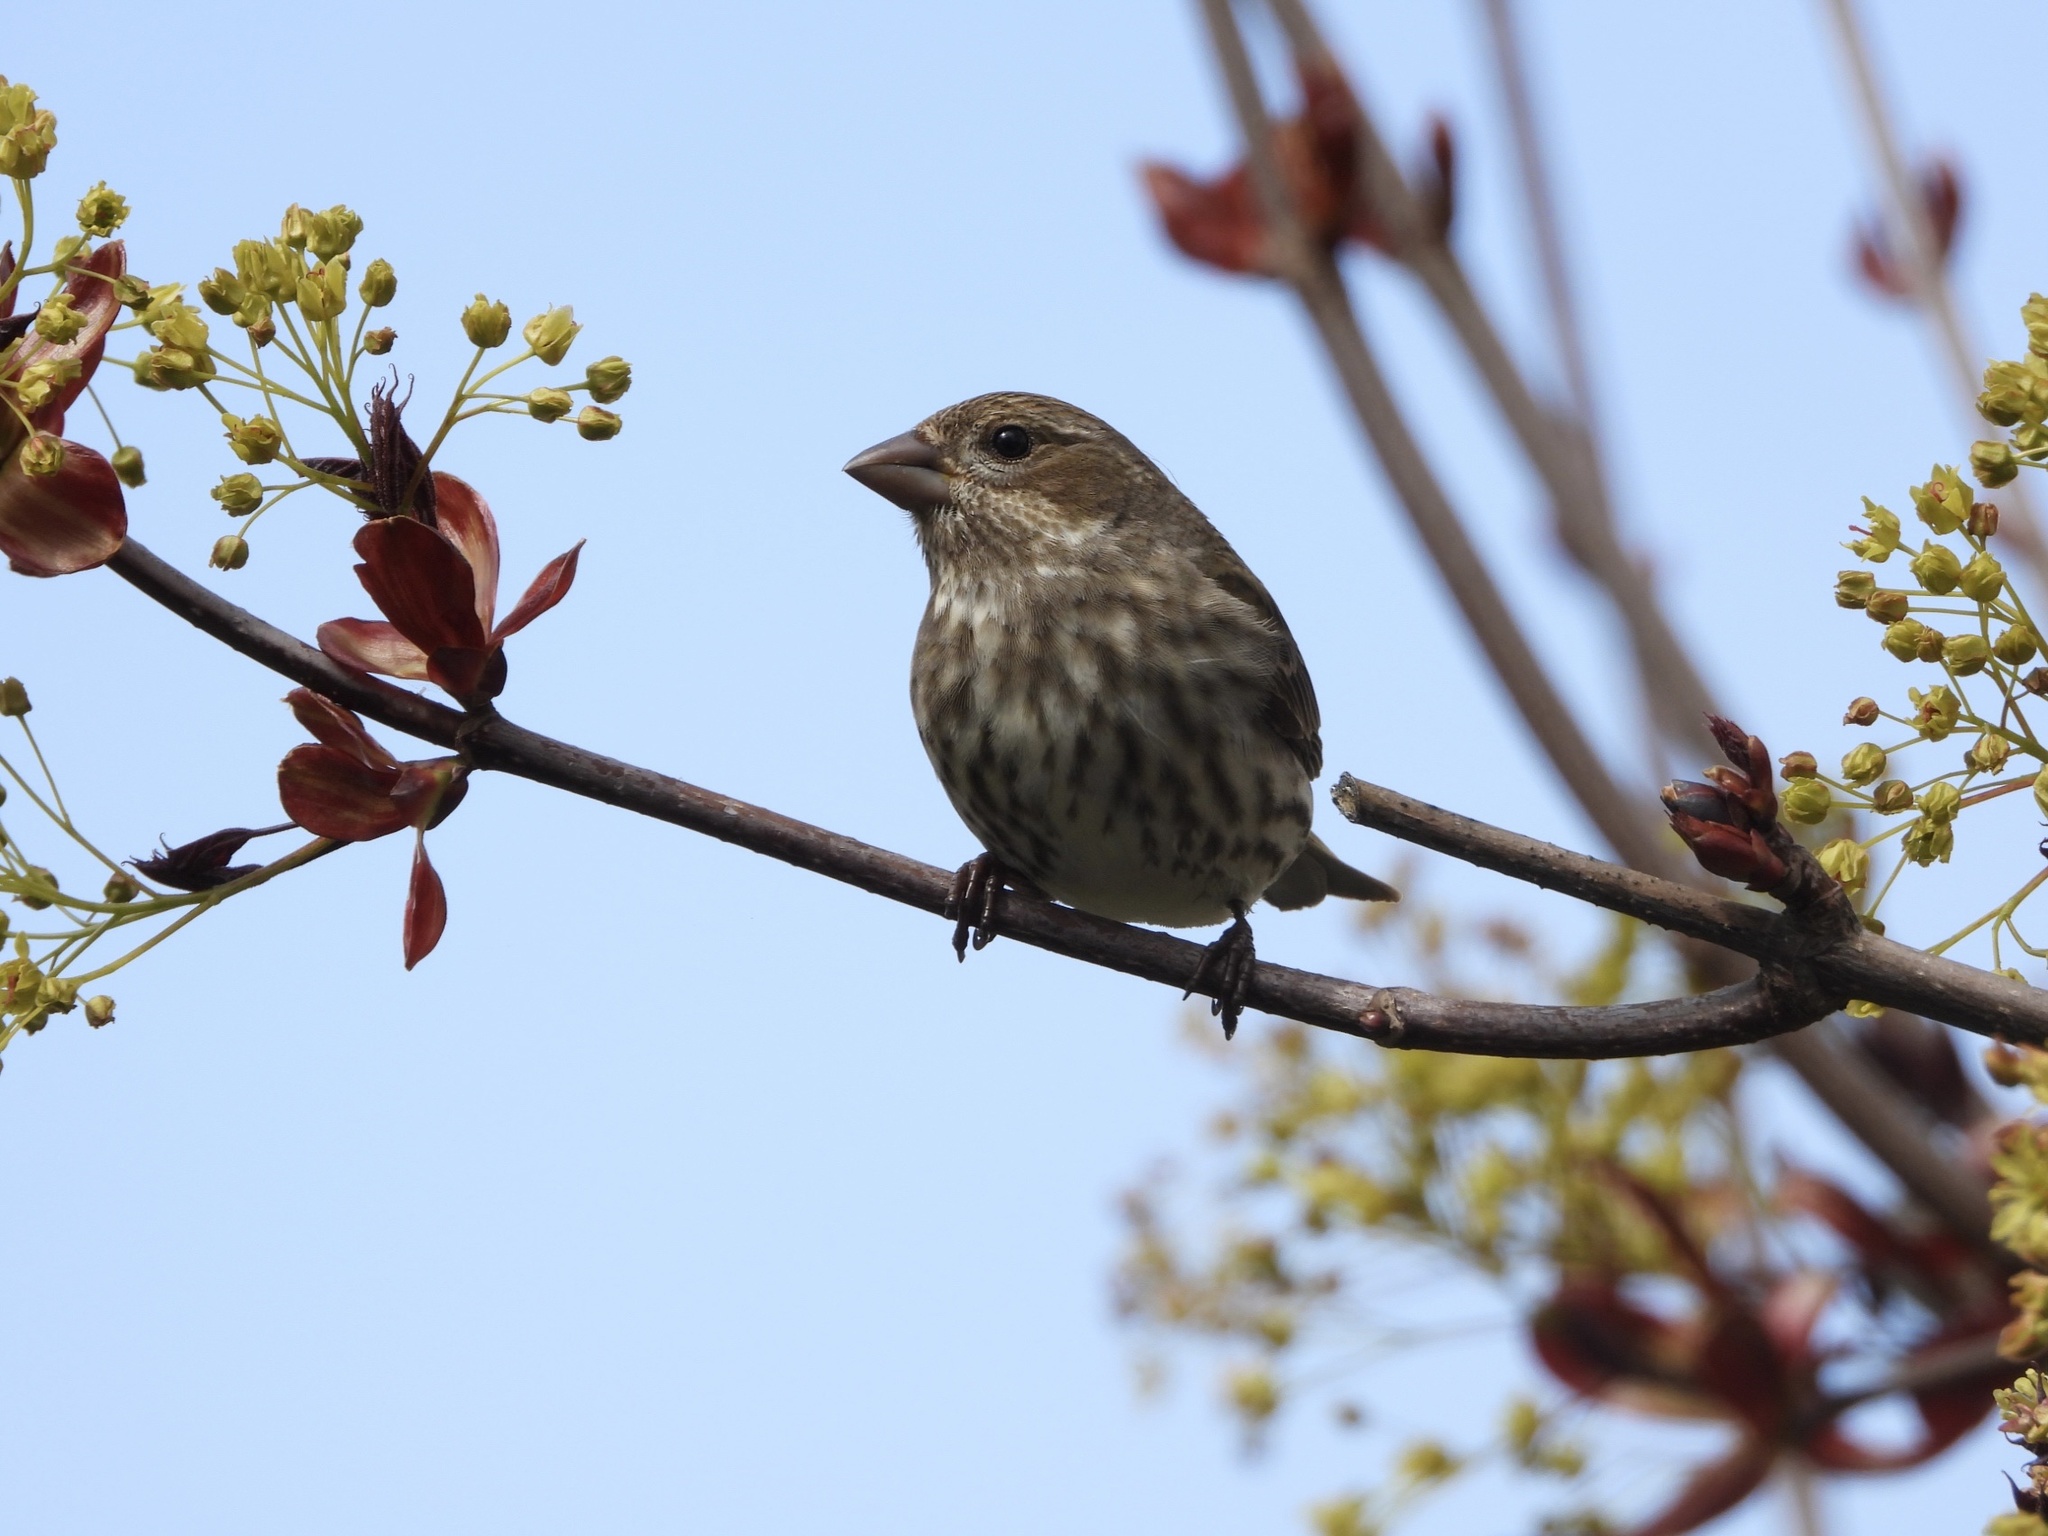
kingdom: Animalia
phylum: Chordata
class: Aves
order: Passeriformes
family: Fringillidae
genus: Haemorhous
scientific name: Haemorhous purpureus
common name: Purple finch
